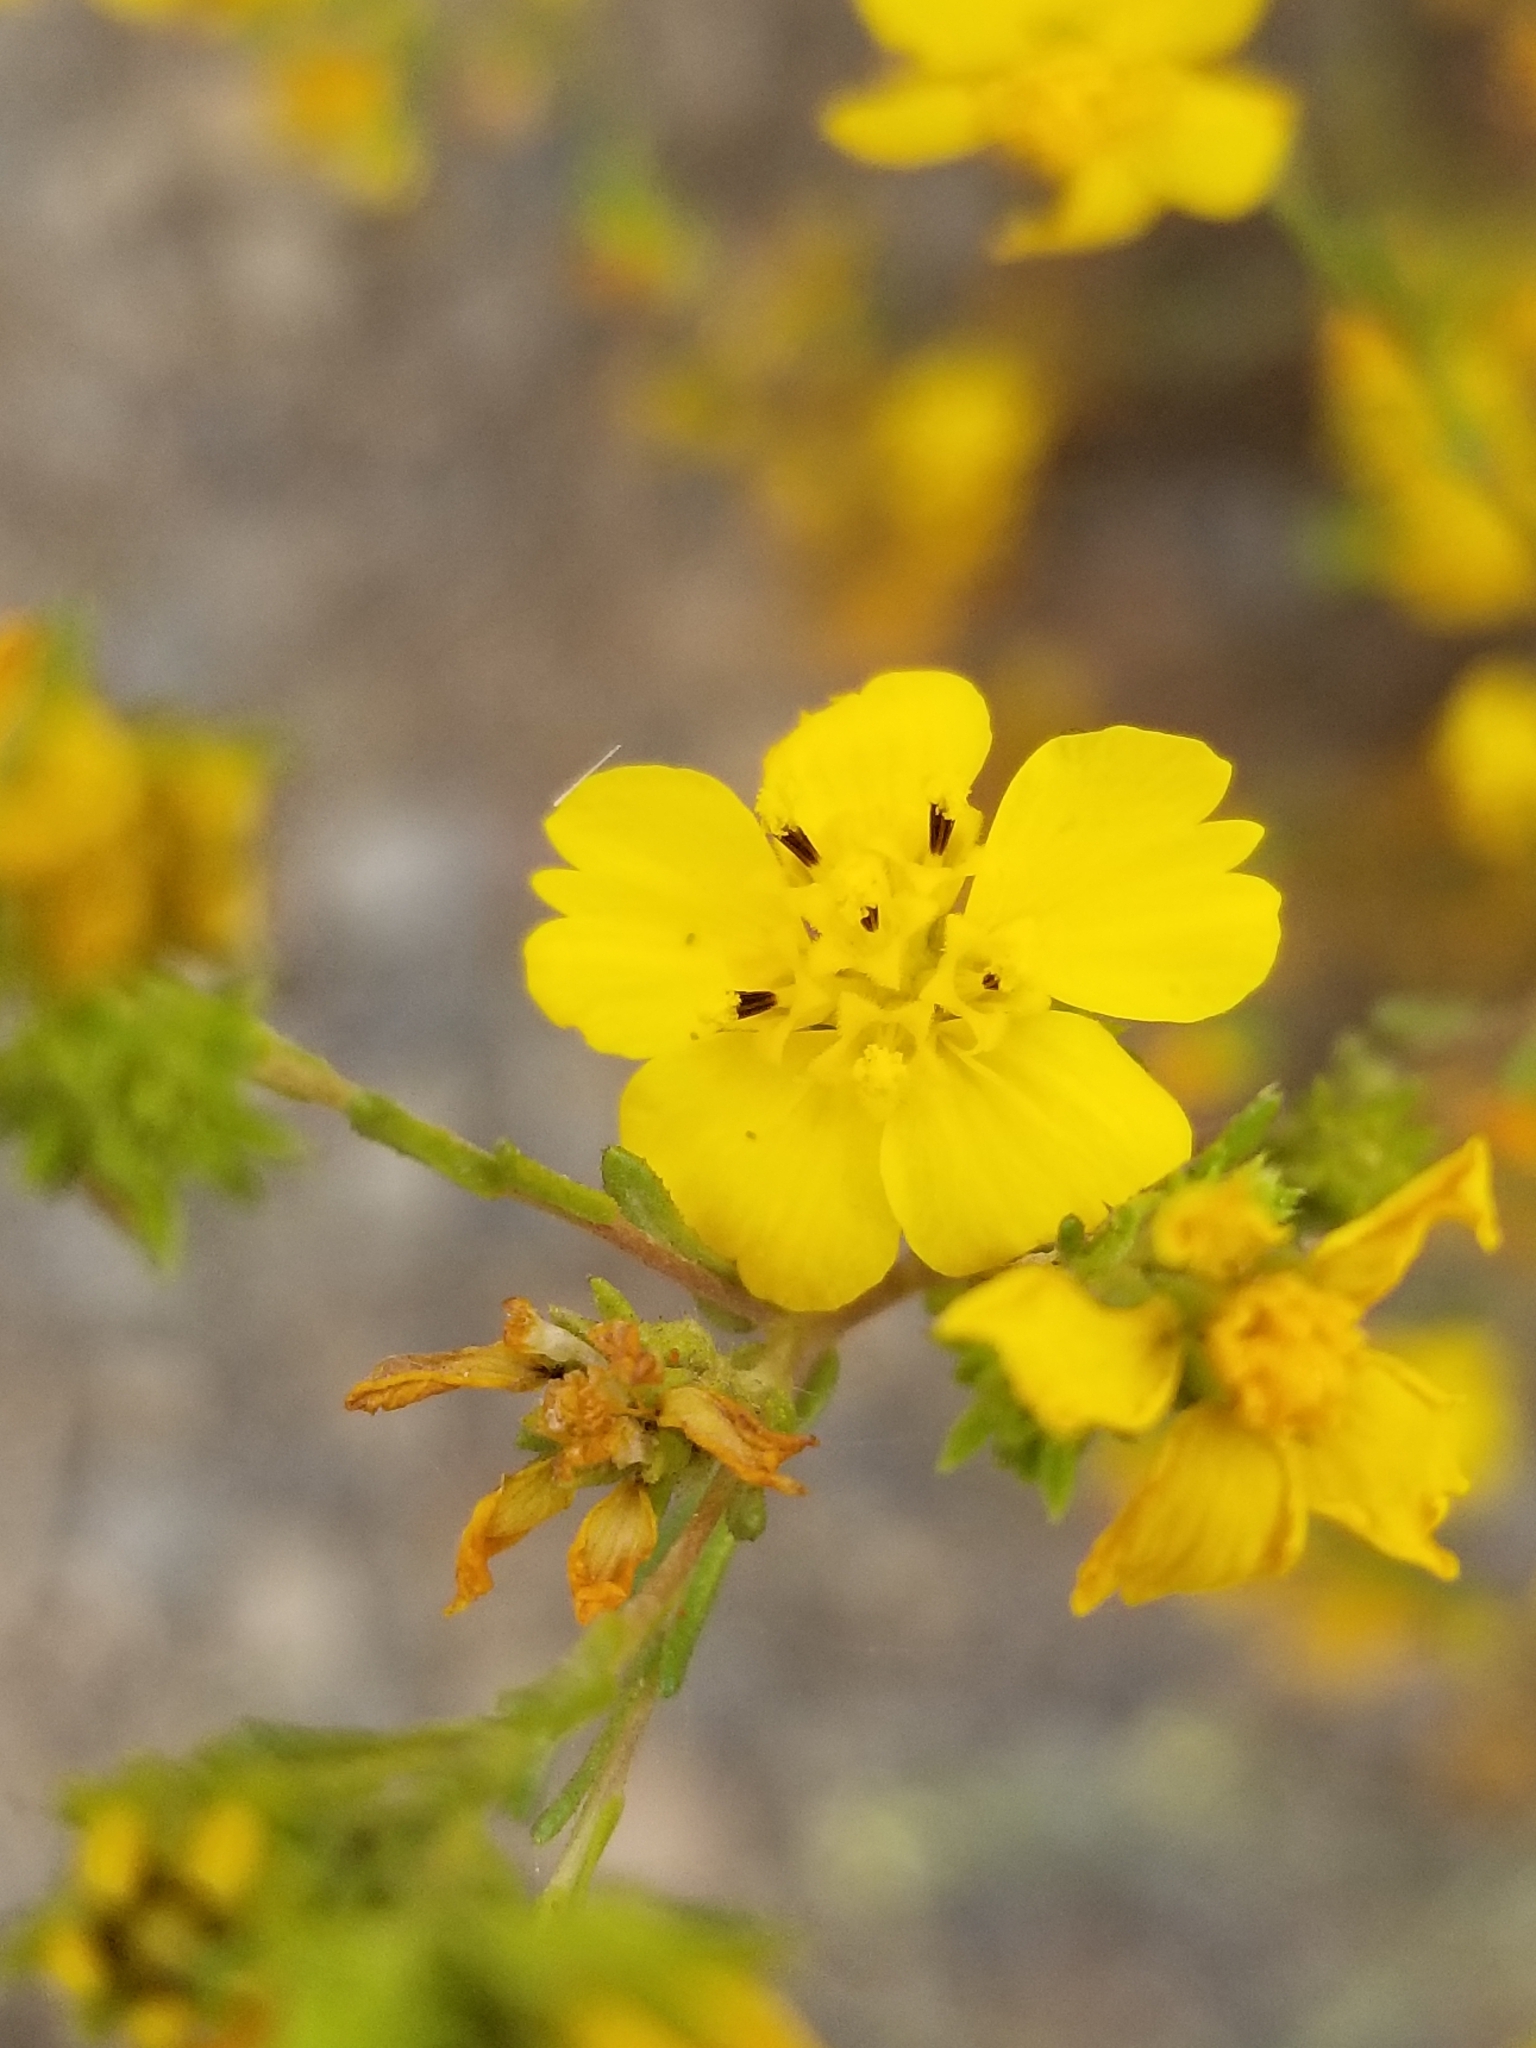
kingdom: Plantae
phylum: Tracheophyta
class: Magnoliopsida
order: Asterales
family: Asteraceae
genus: Deinandra
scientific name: Deinandra fasciculata
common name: Clustered tarweed
